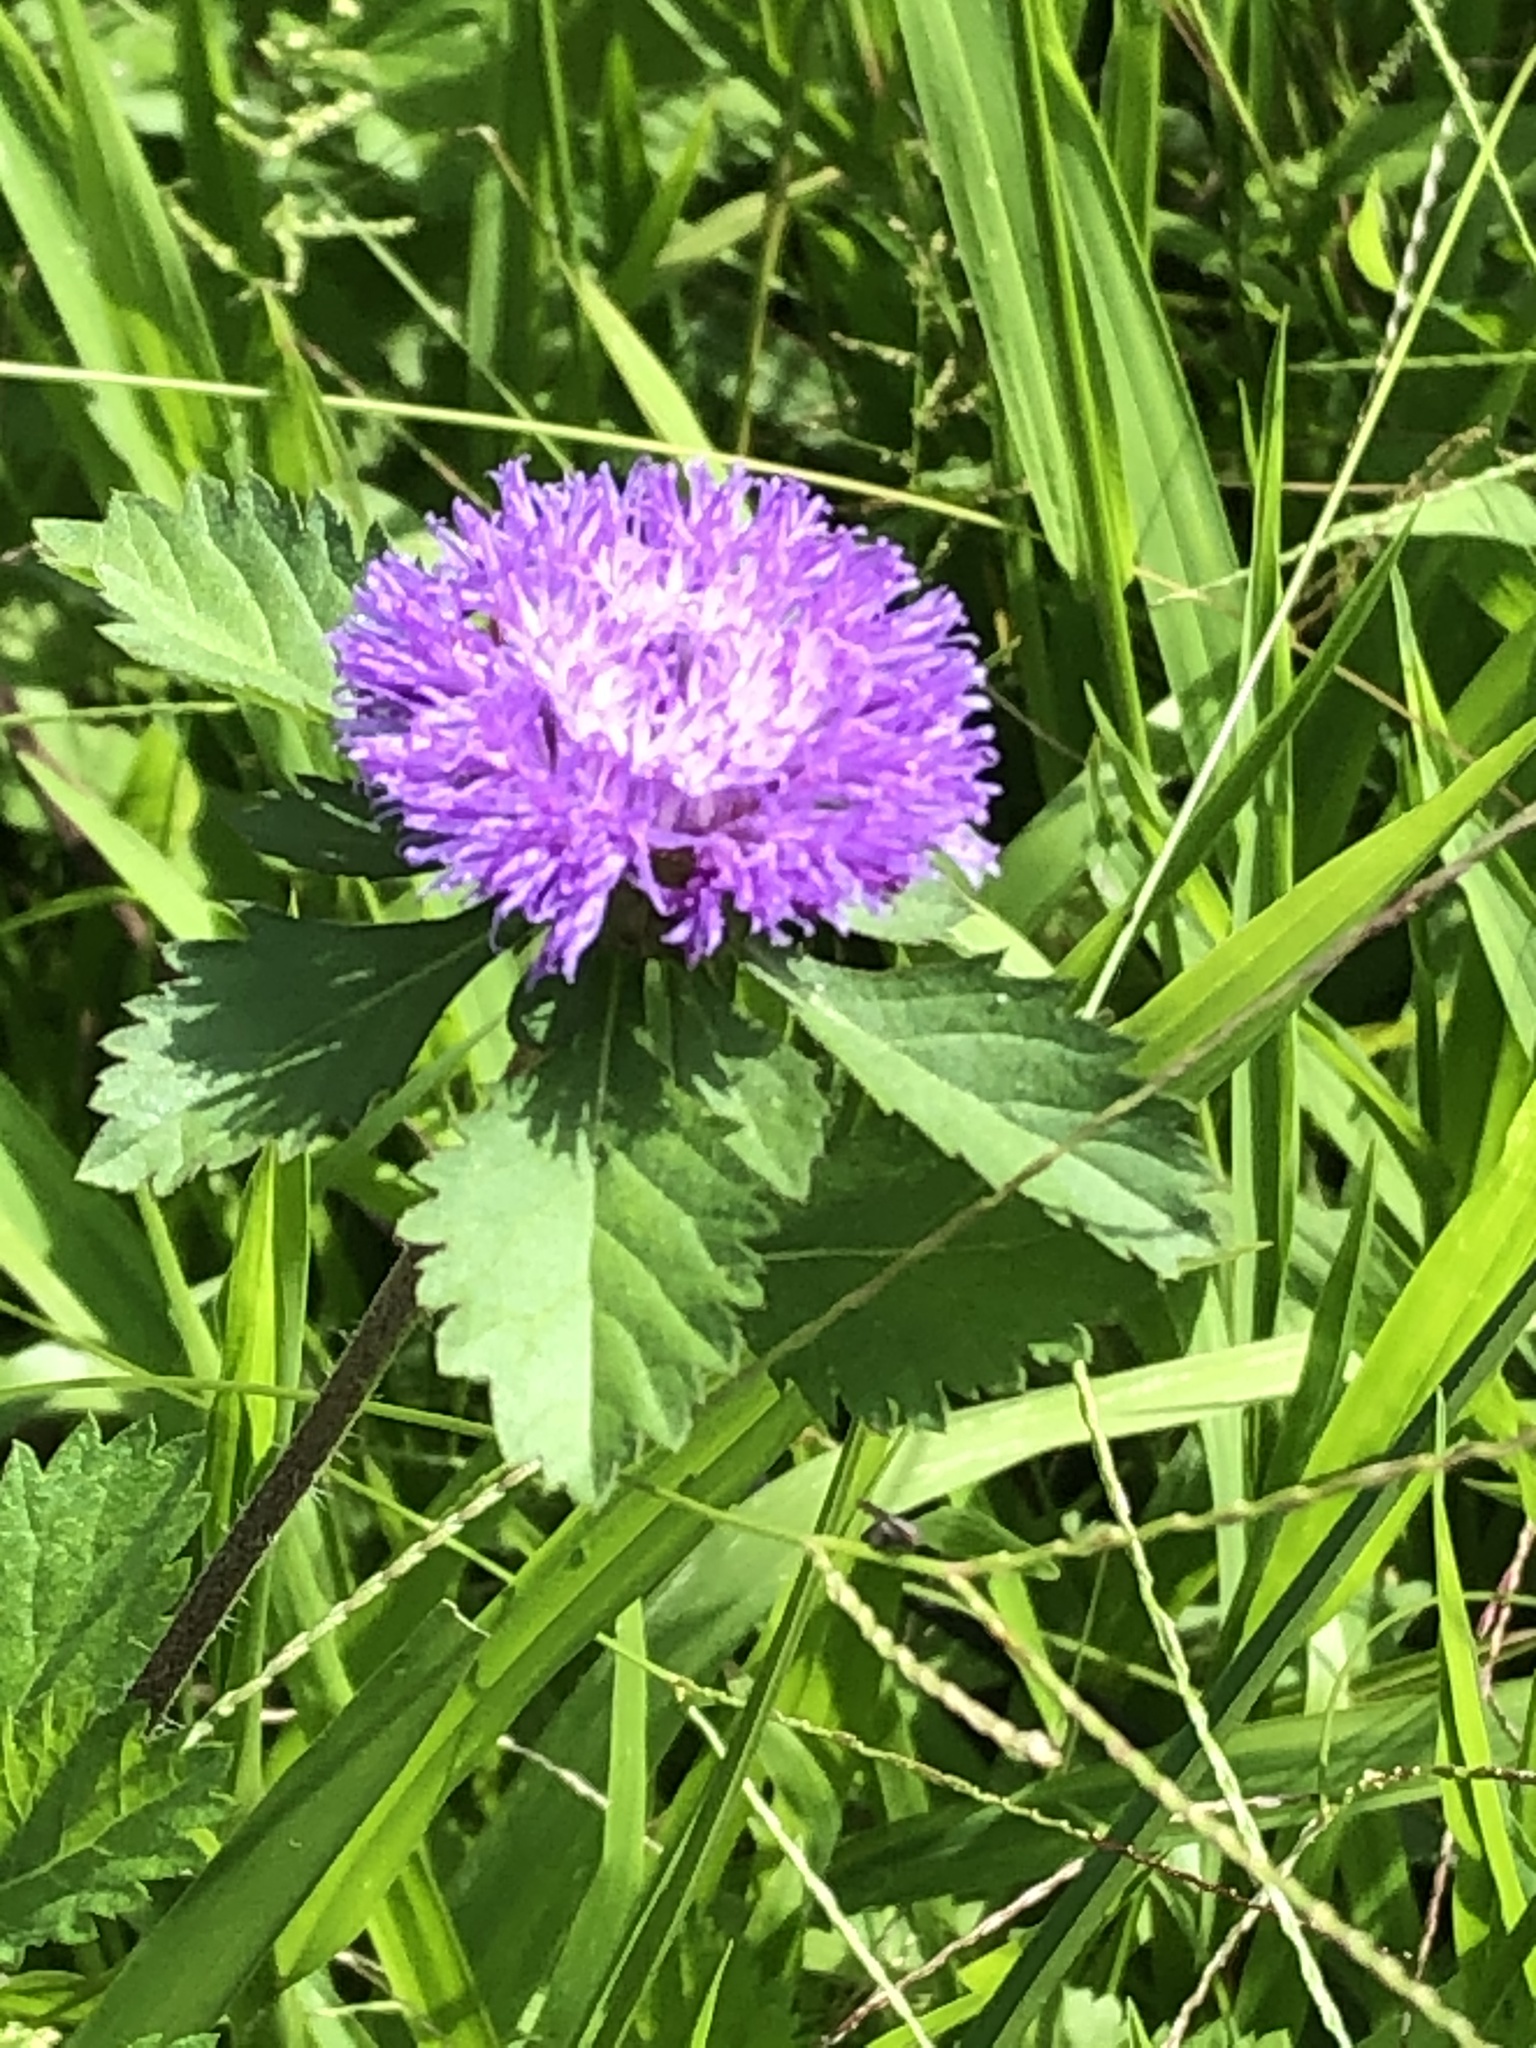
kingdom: Plantae
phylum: Tracheophyta
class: Magnoliopsida
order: Asterales
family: Asteraceae
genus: Centratherum
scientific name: Centratherum punctatum
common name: Larkdaisy
